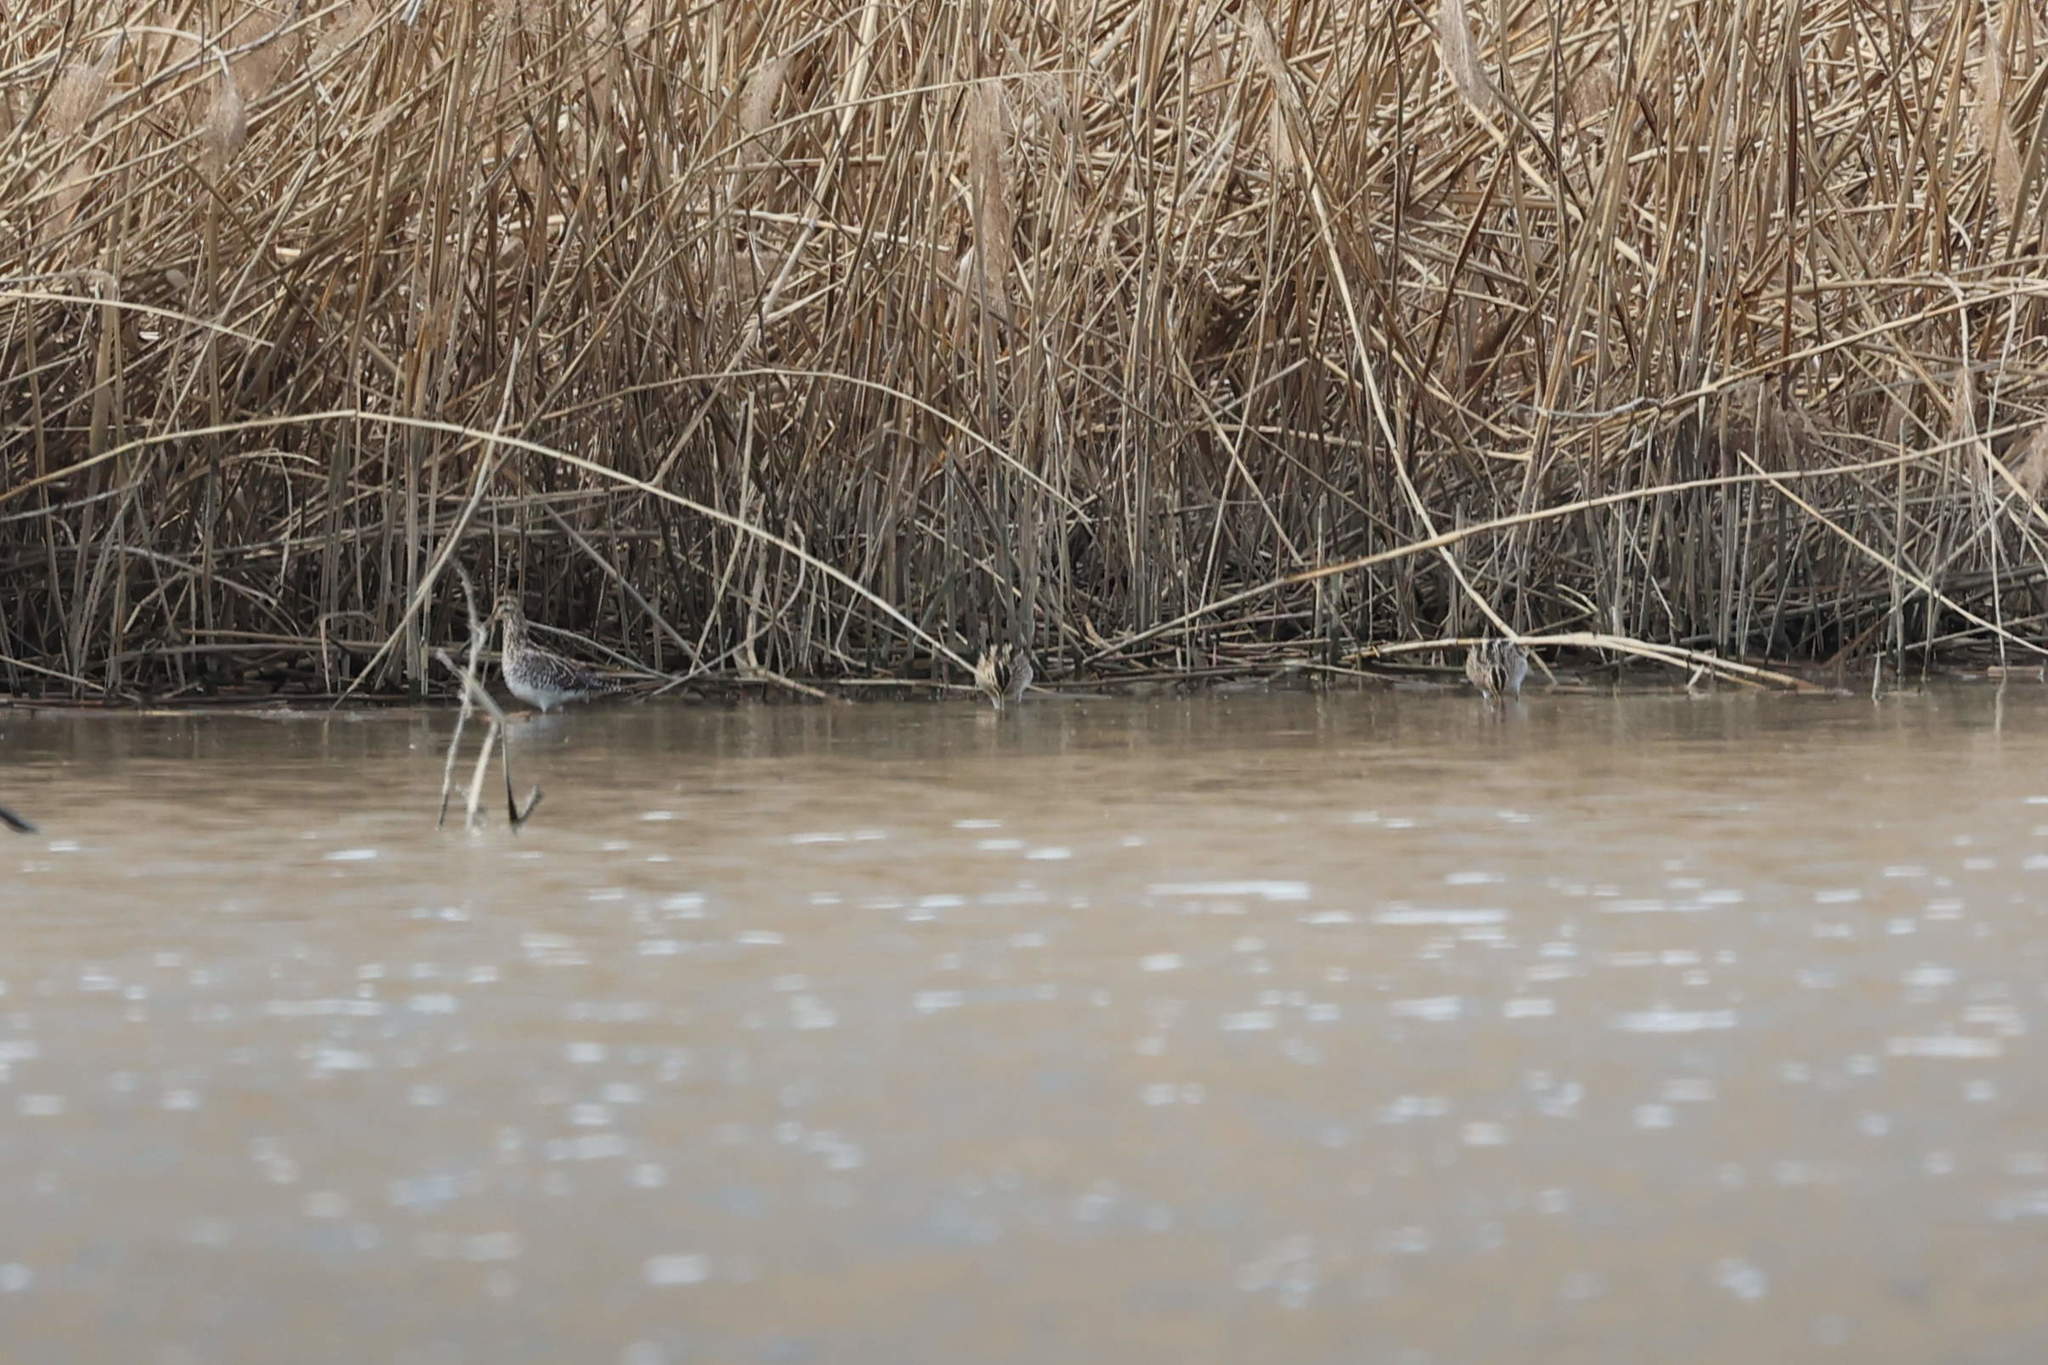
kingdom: Animalia
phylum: Chordata
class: Aves
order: Charadriiformes
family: Scolopacidae
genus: Gallinago
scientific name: Gallinago gallinago
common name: Common snipe
